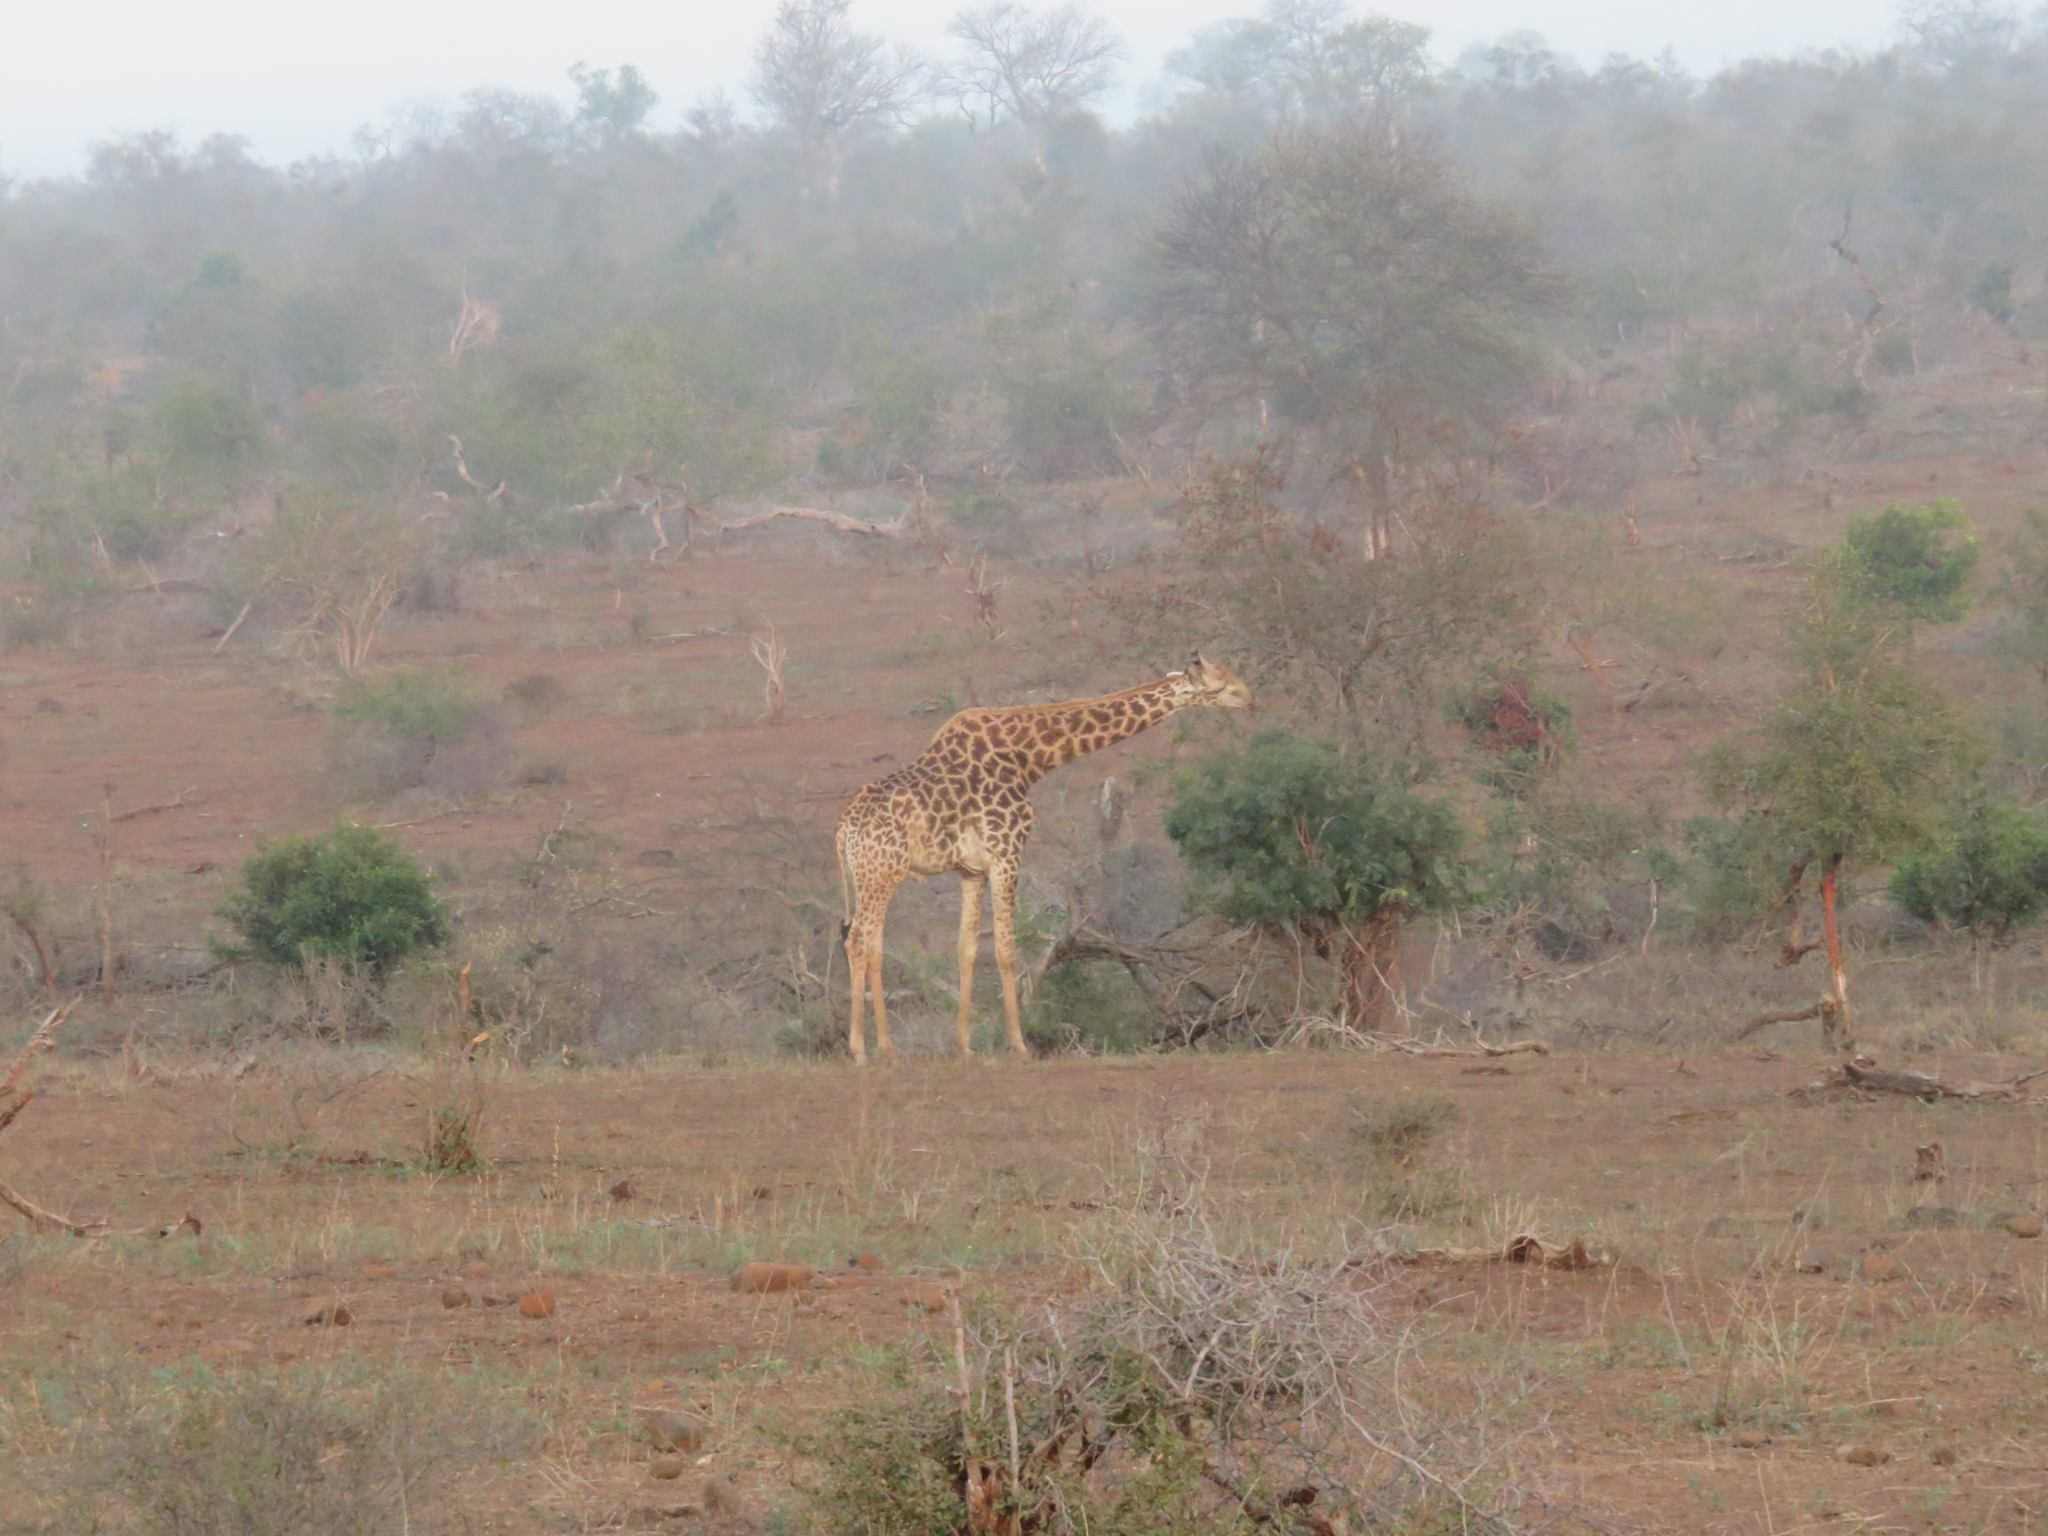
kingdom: Animalia
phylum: Chordata
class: Mammalia
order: Artiodactyla
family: Giraffidae
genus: Giraffa
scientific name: Giraffa giraffa
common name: Southern giraffe
